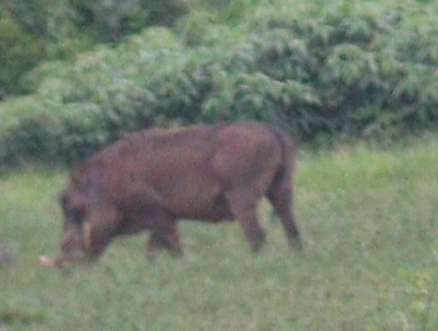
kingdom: Animalia
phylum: Chordata
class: Mammalia
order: Artiodactyla
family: Suidae
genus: Phacochoerus
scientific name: Phacochoerus africanus
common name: Common warthog
